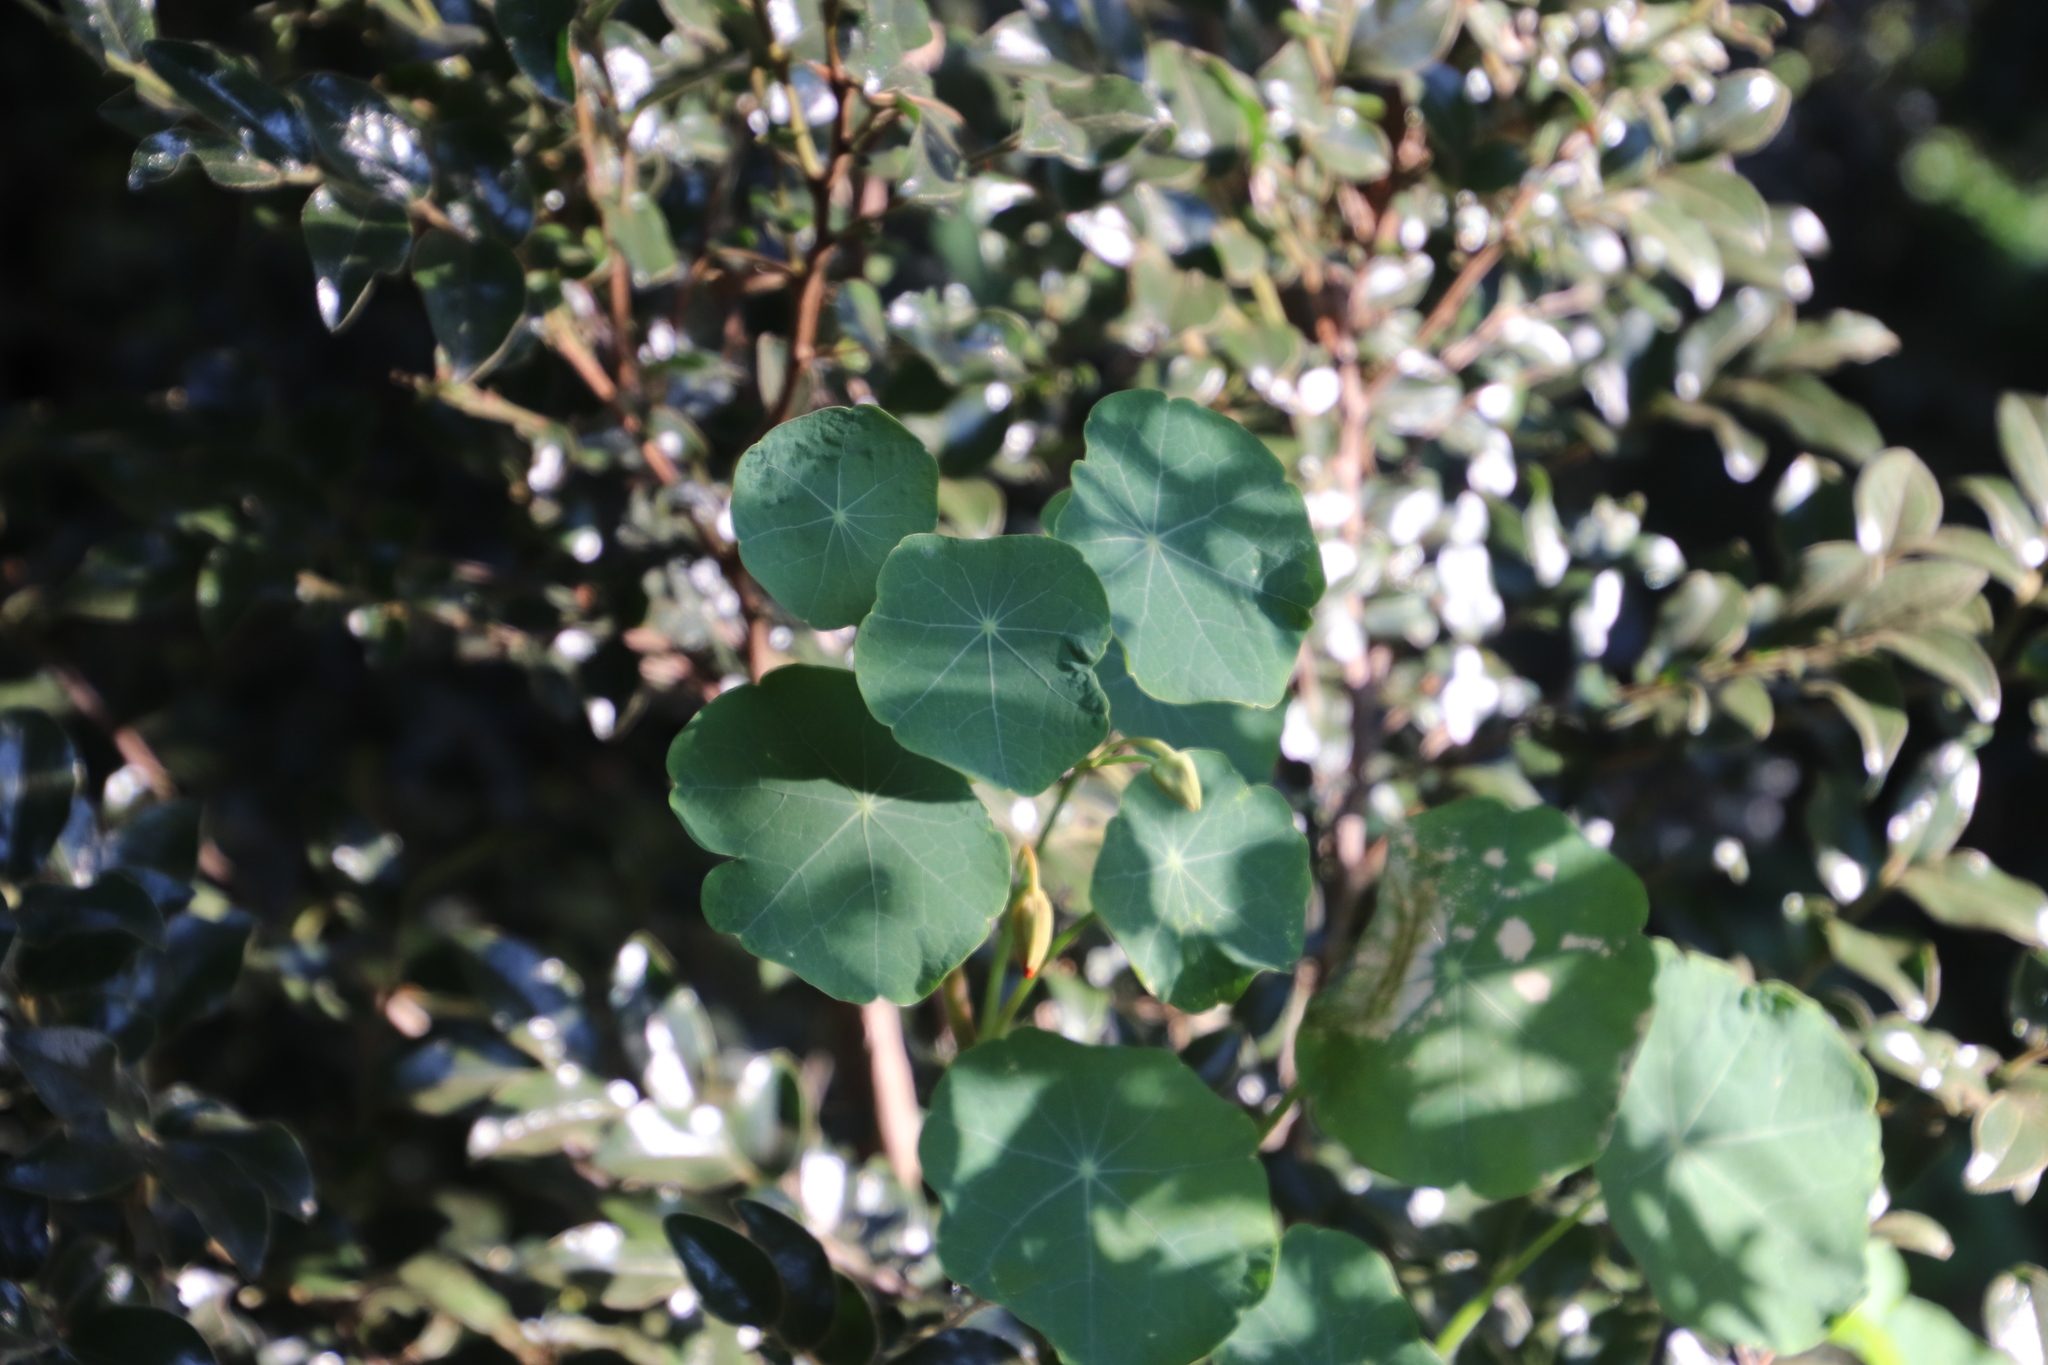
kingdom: Plantae
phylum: Tracheophyta
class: Magnoliopsida
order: Brassicales
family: Tropaeolaceae
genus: Tropaeolum
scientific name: Tropaeolum majus
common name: Nasturtium
